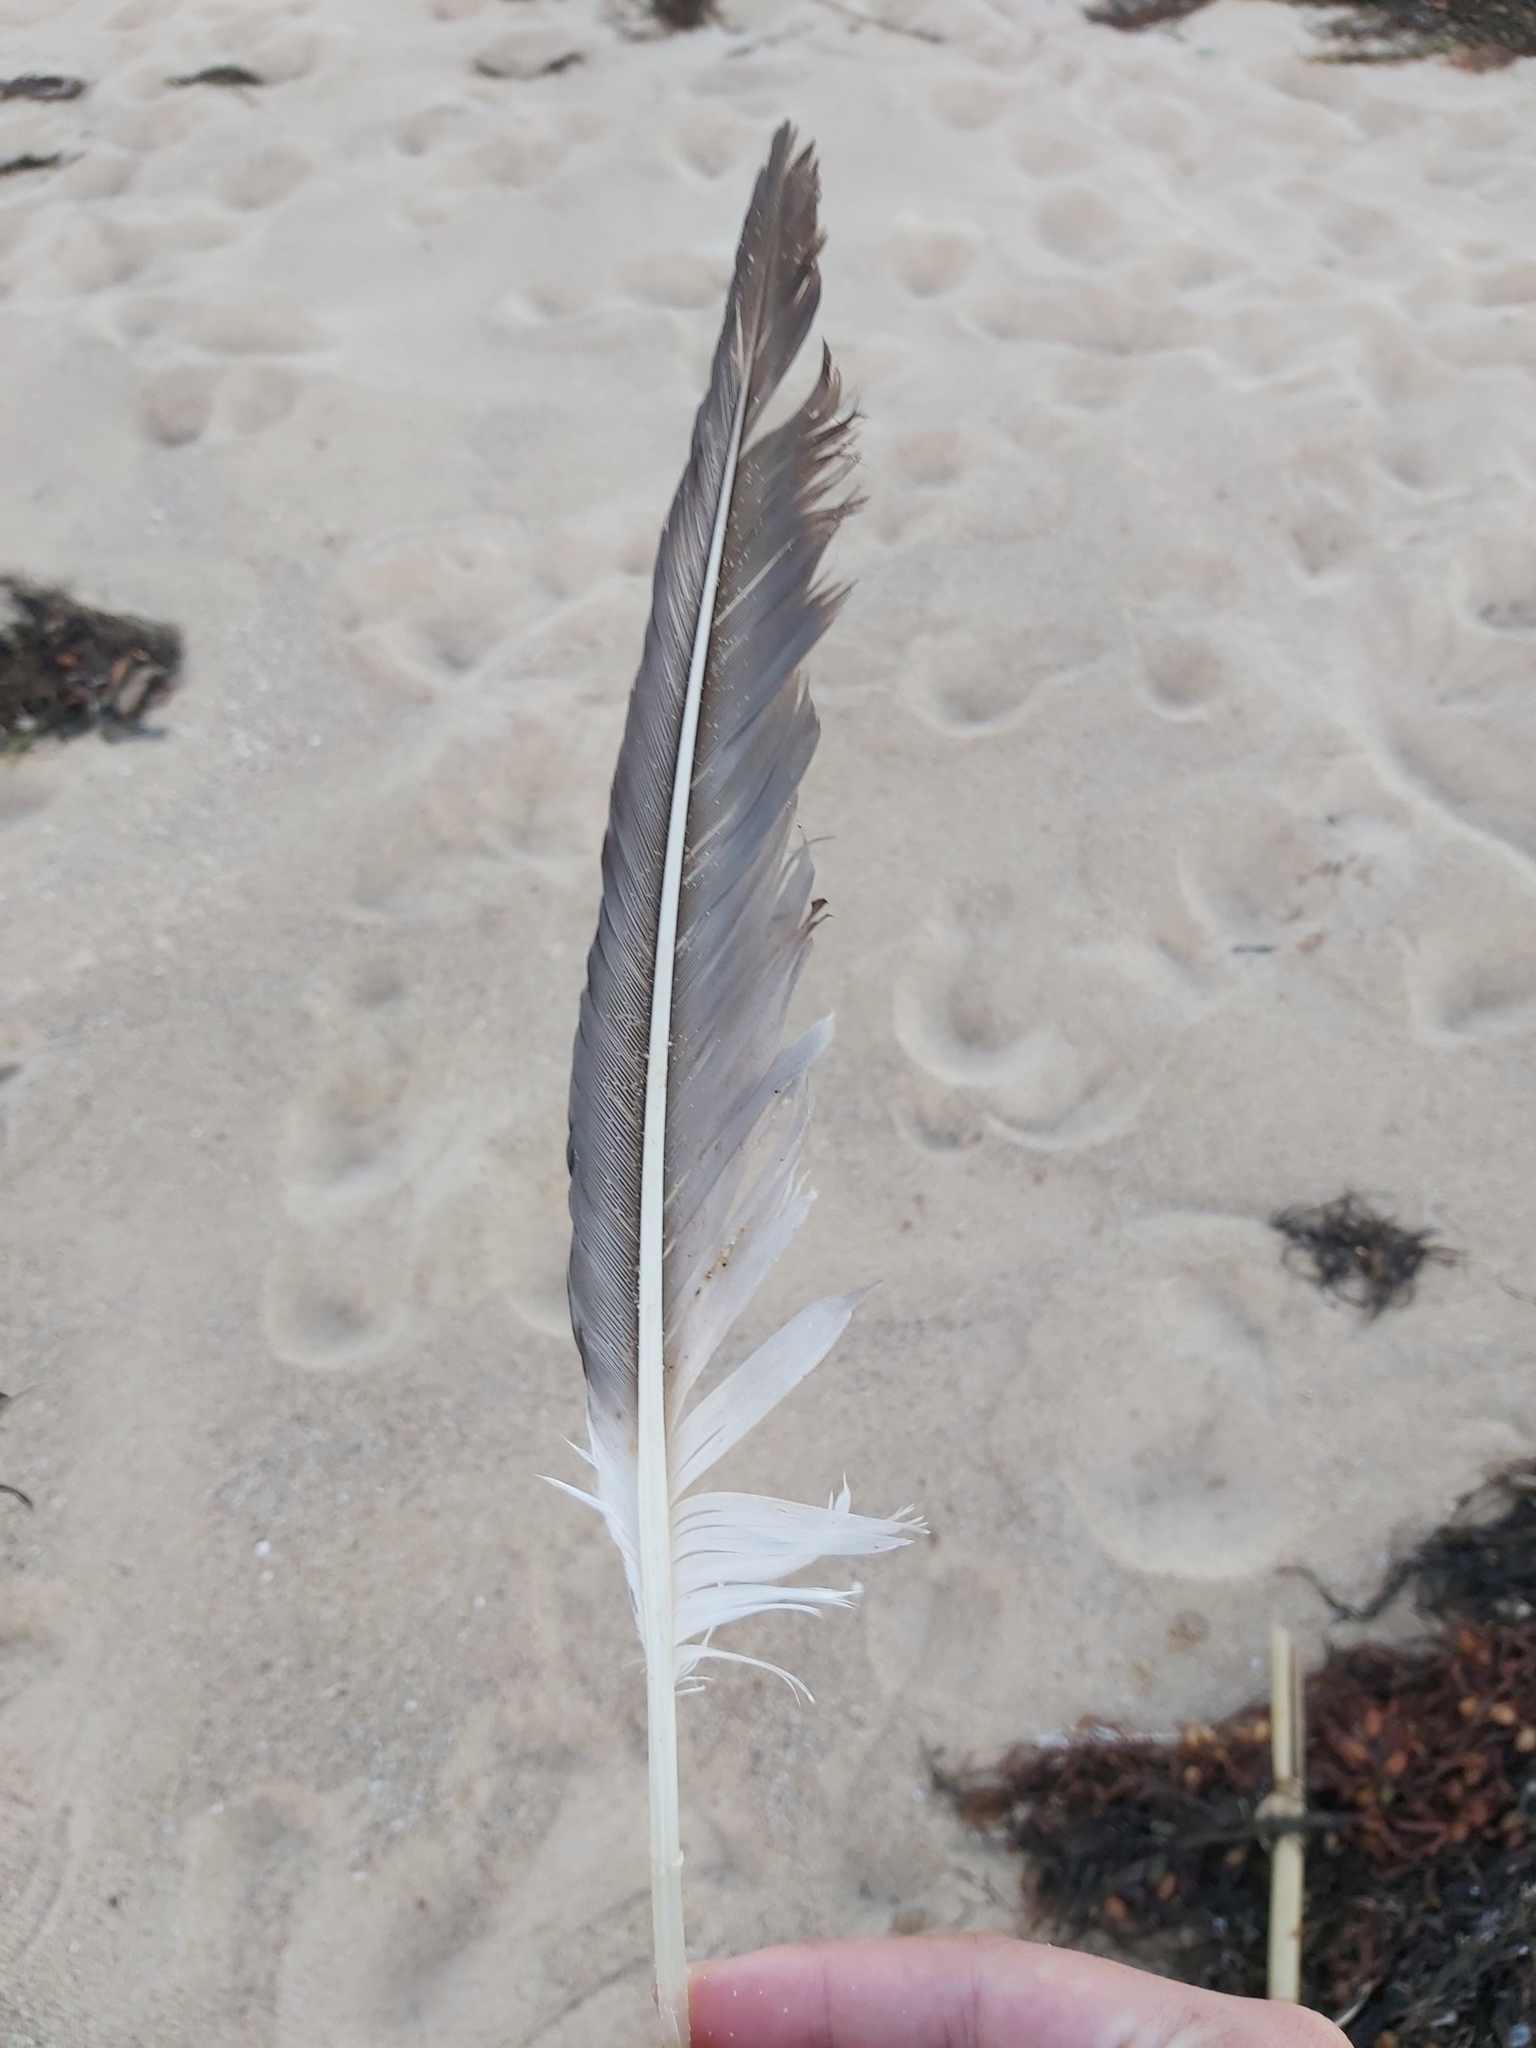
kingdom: Animalia
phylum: Chordata
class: Aves
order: Suliformes
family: Sulidae
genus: Morus
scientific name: Morus serrator
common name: Australasian gannet
